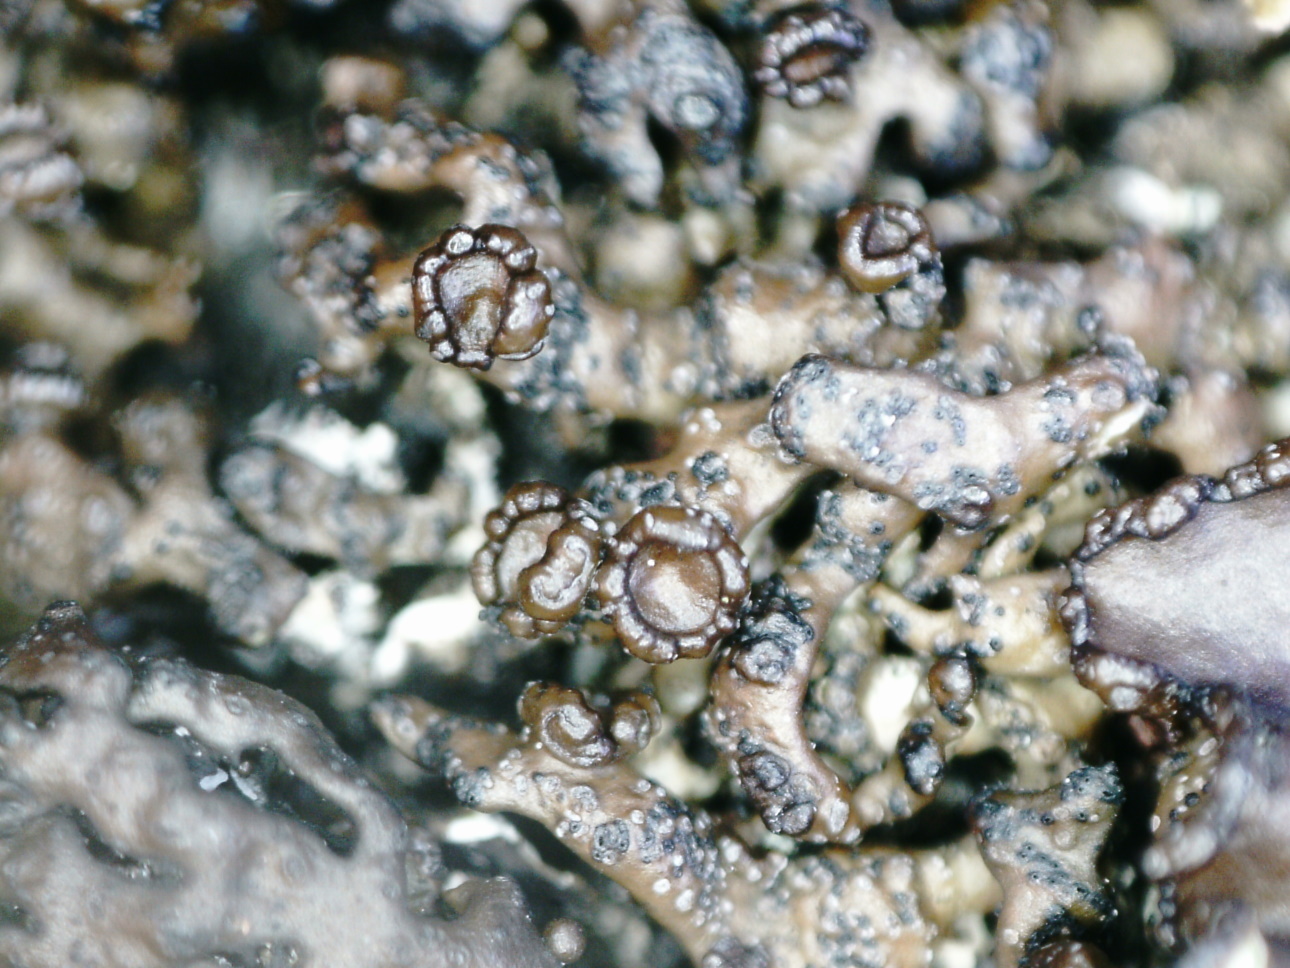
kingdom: Fungi
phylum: Ascomycota
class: Lecanoromycetes
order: Lecanorales
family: Parmeliaceae
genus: Melanelia
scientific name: Melanelia stygia
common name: Alpine camouflage lichen
